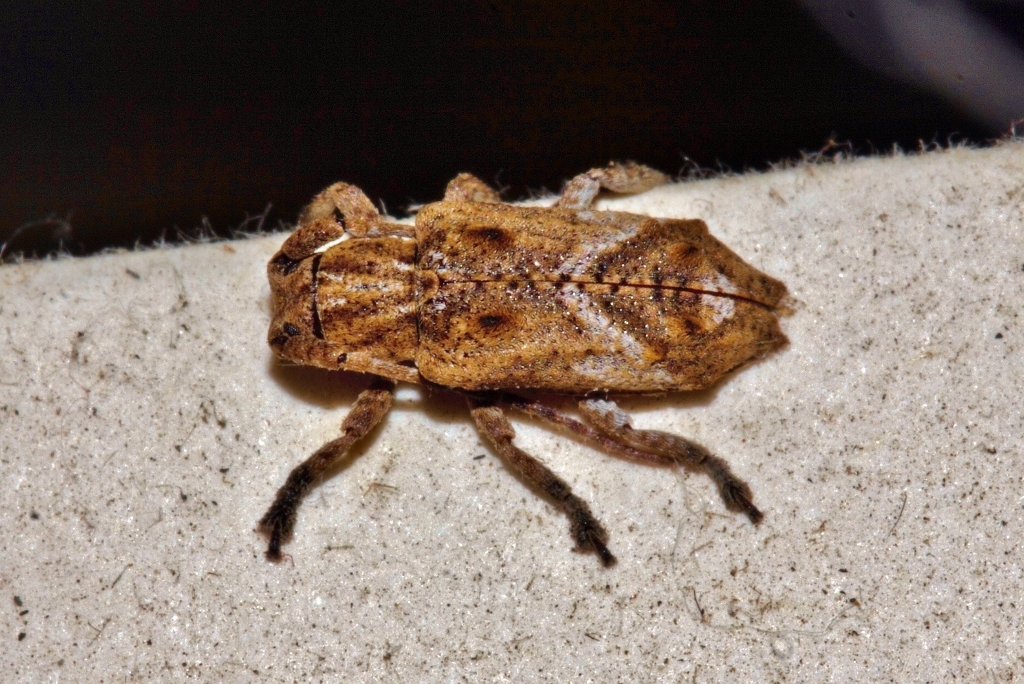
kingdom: Animalia
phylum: Arthropoda
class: Insecta
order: Coleoptera
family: Cerambycidae
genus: Pterolophia
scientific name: Pterolophia angulata
